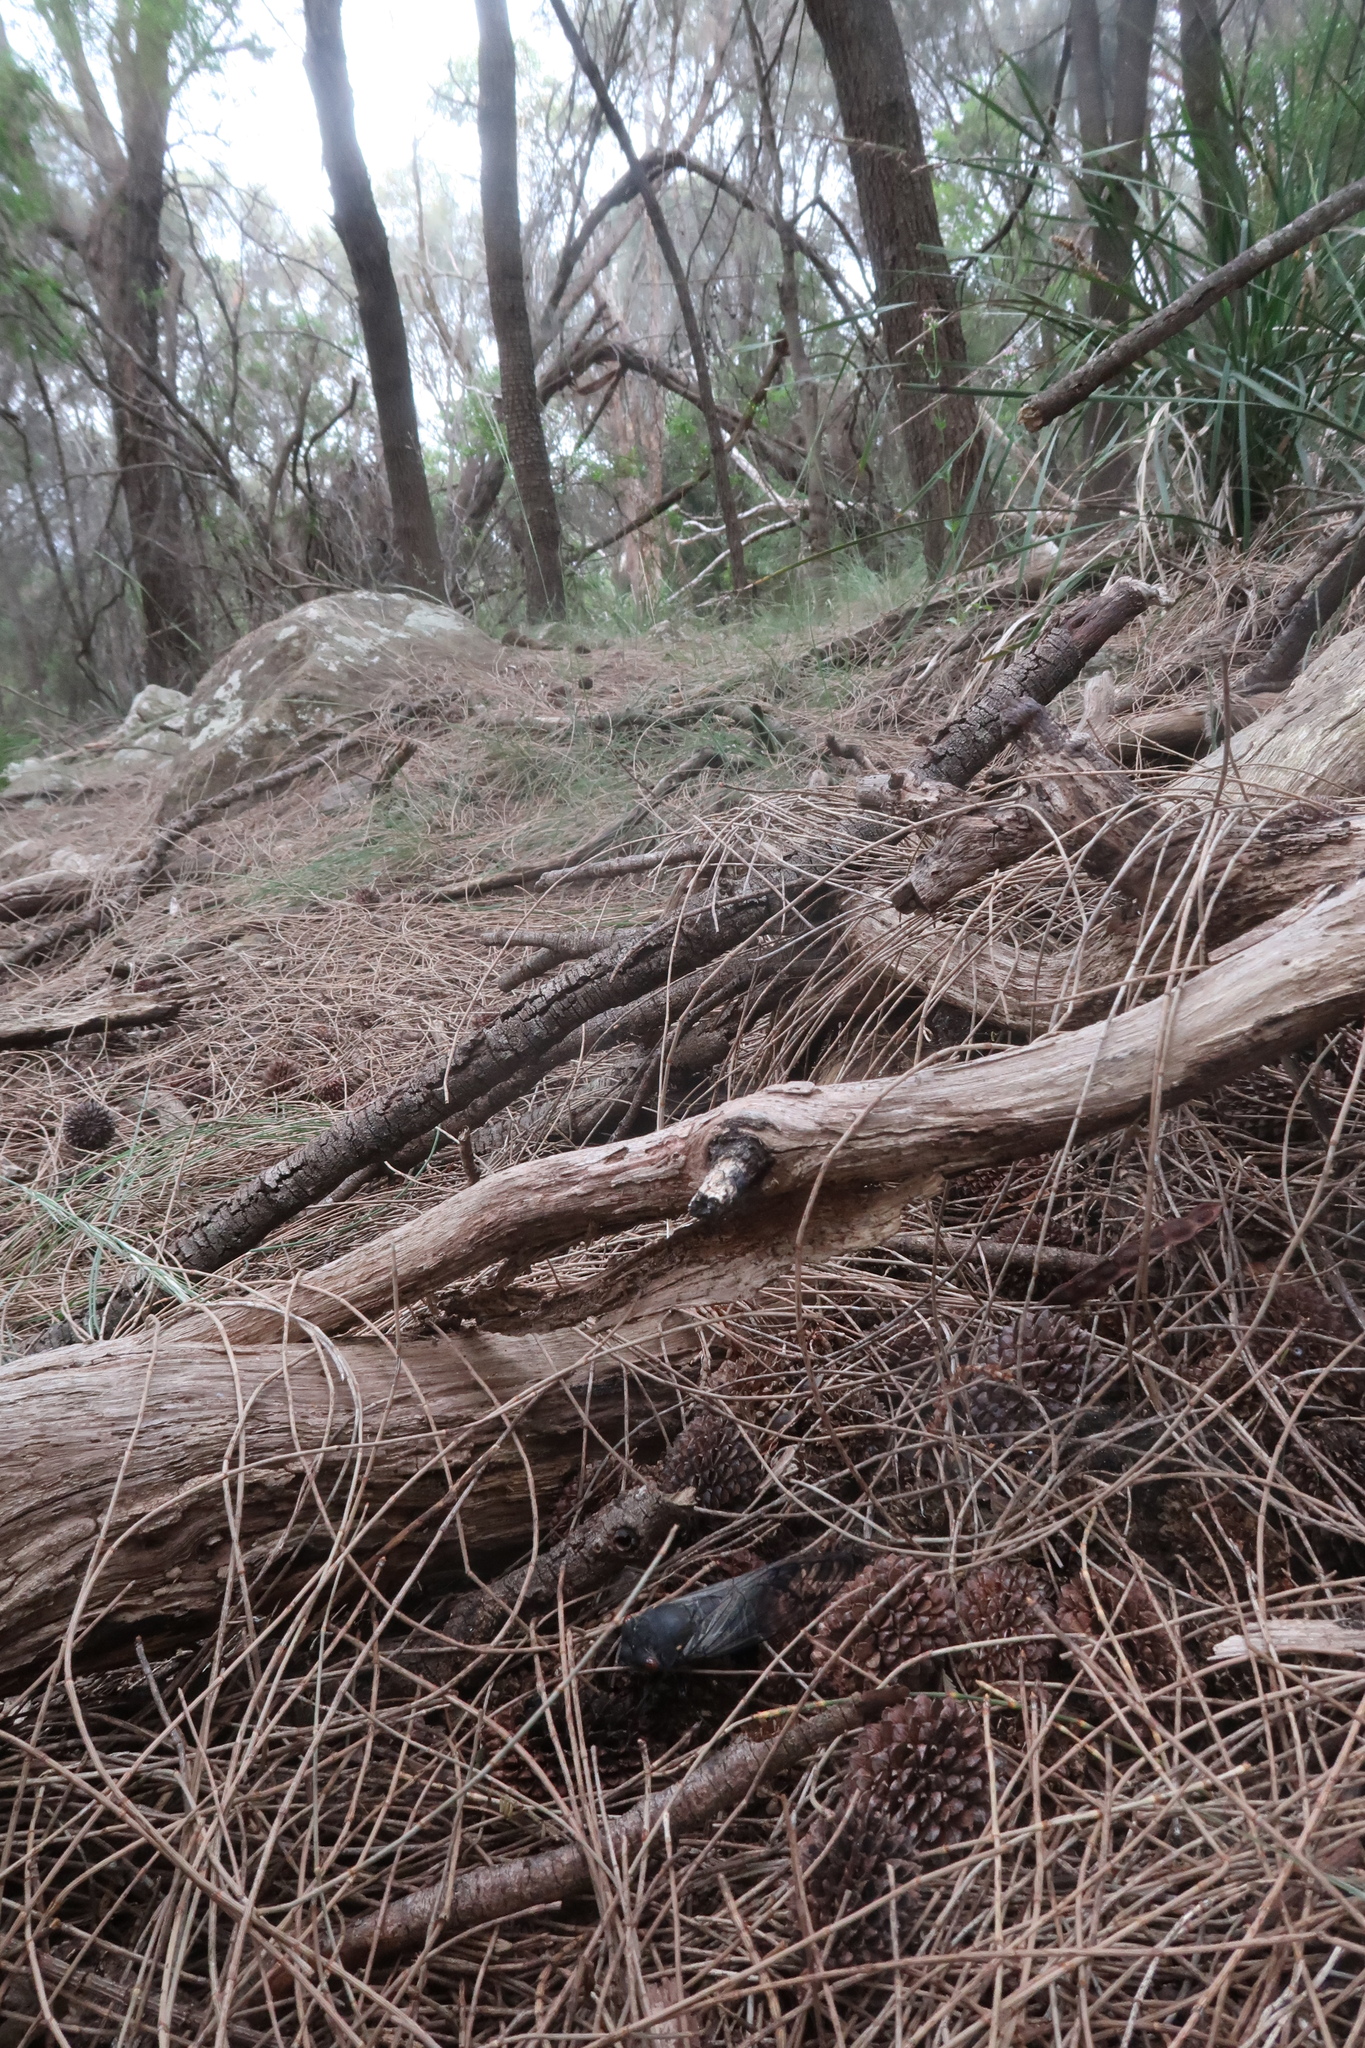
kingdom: Animalia
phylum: Arthropoda
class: Insecta
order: Hemiptera
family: Cicadidae
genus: Psaltoda
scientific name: Psaltoda moerens
